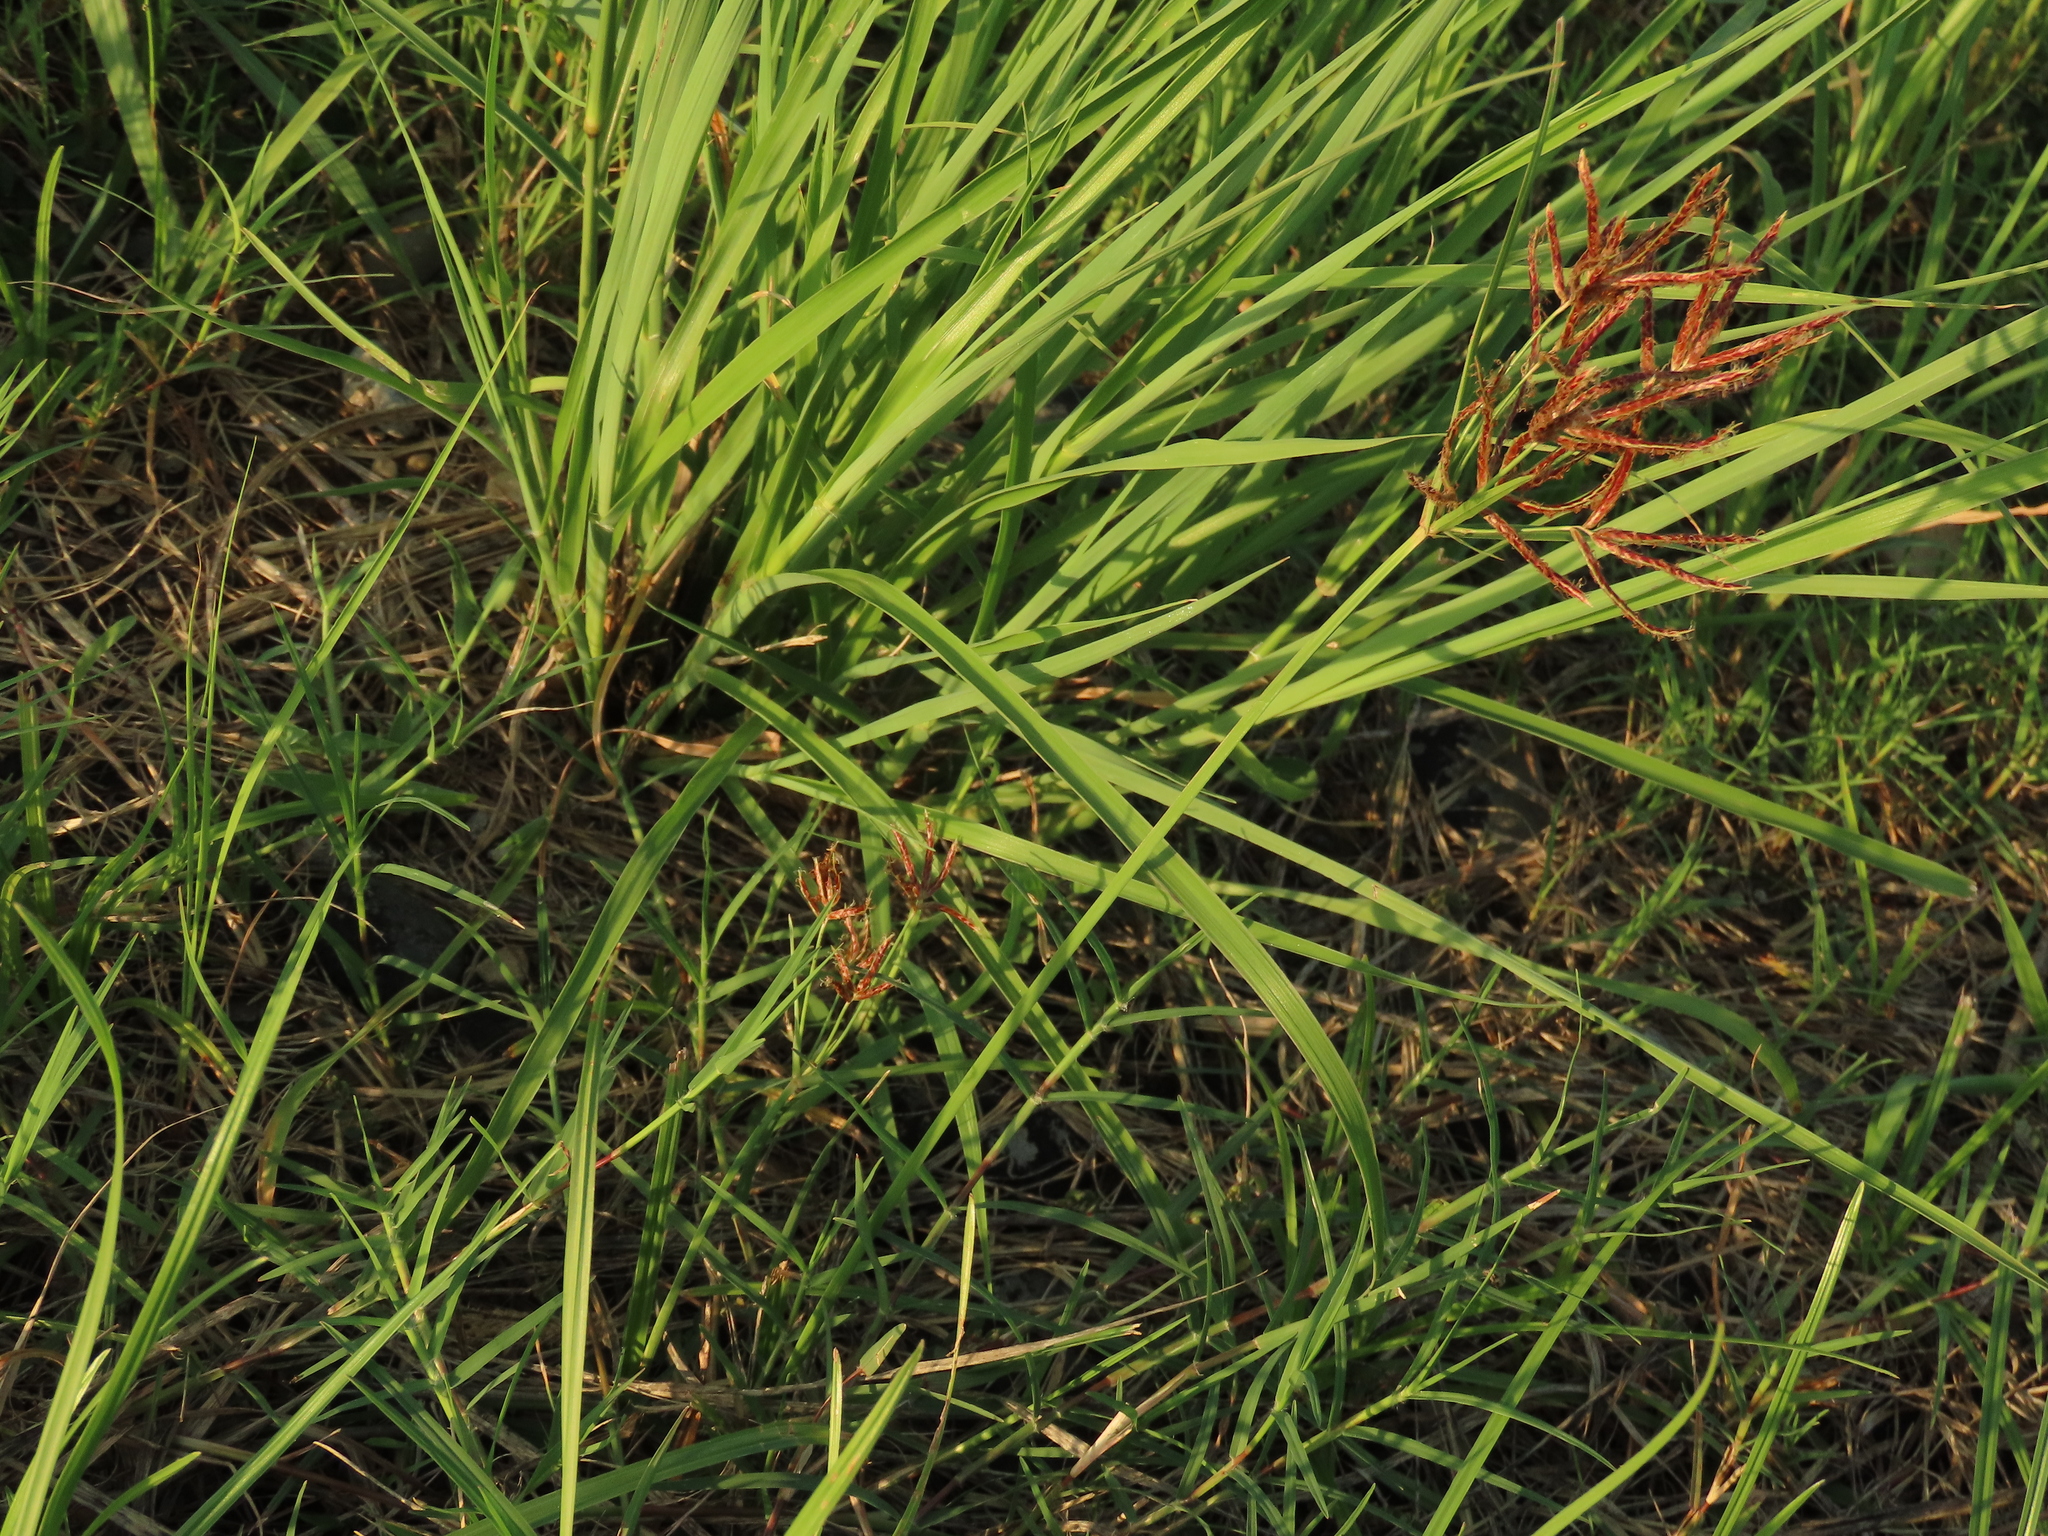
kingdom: Plantae
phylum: Tracheophyta
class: Liliopsida
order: Poales
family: Cyperaceae
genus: Cyperus
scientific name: Cyperus rotundus
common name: Nutgrass
